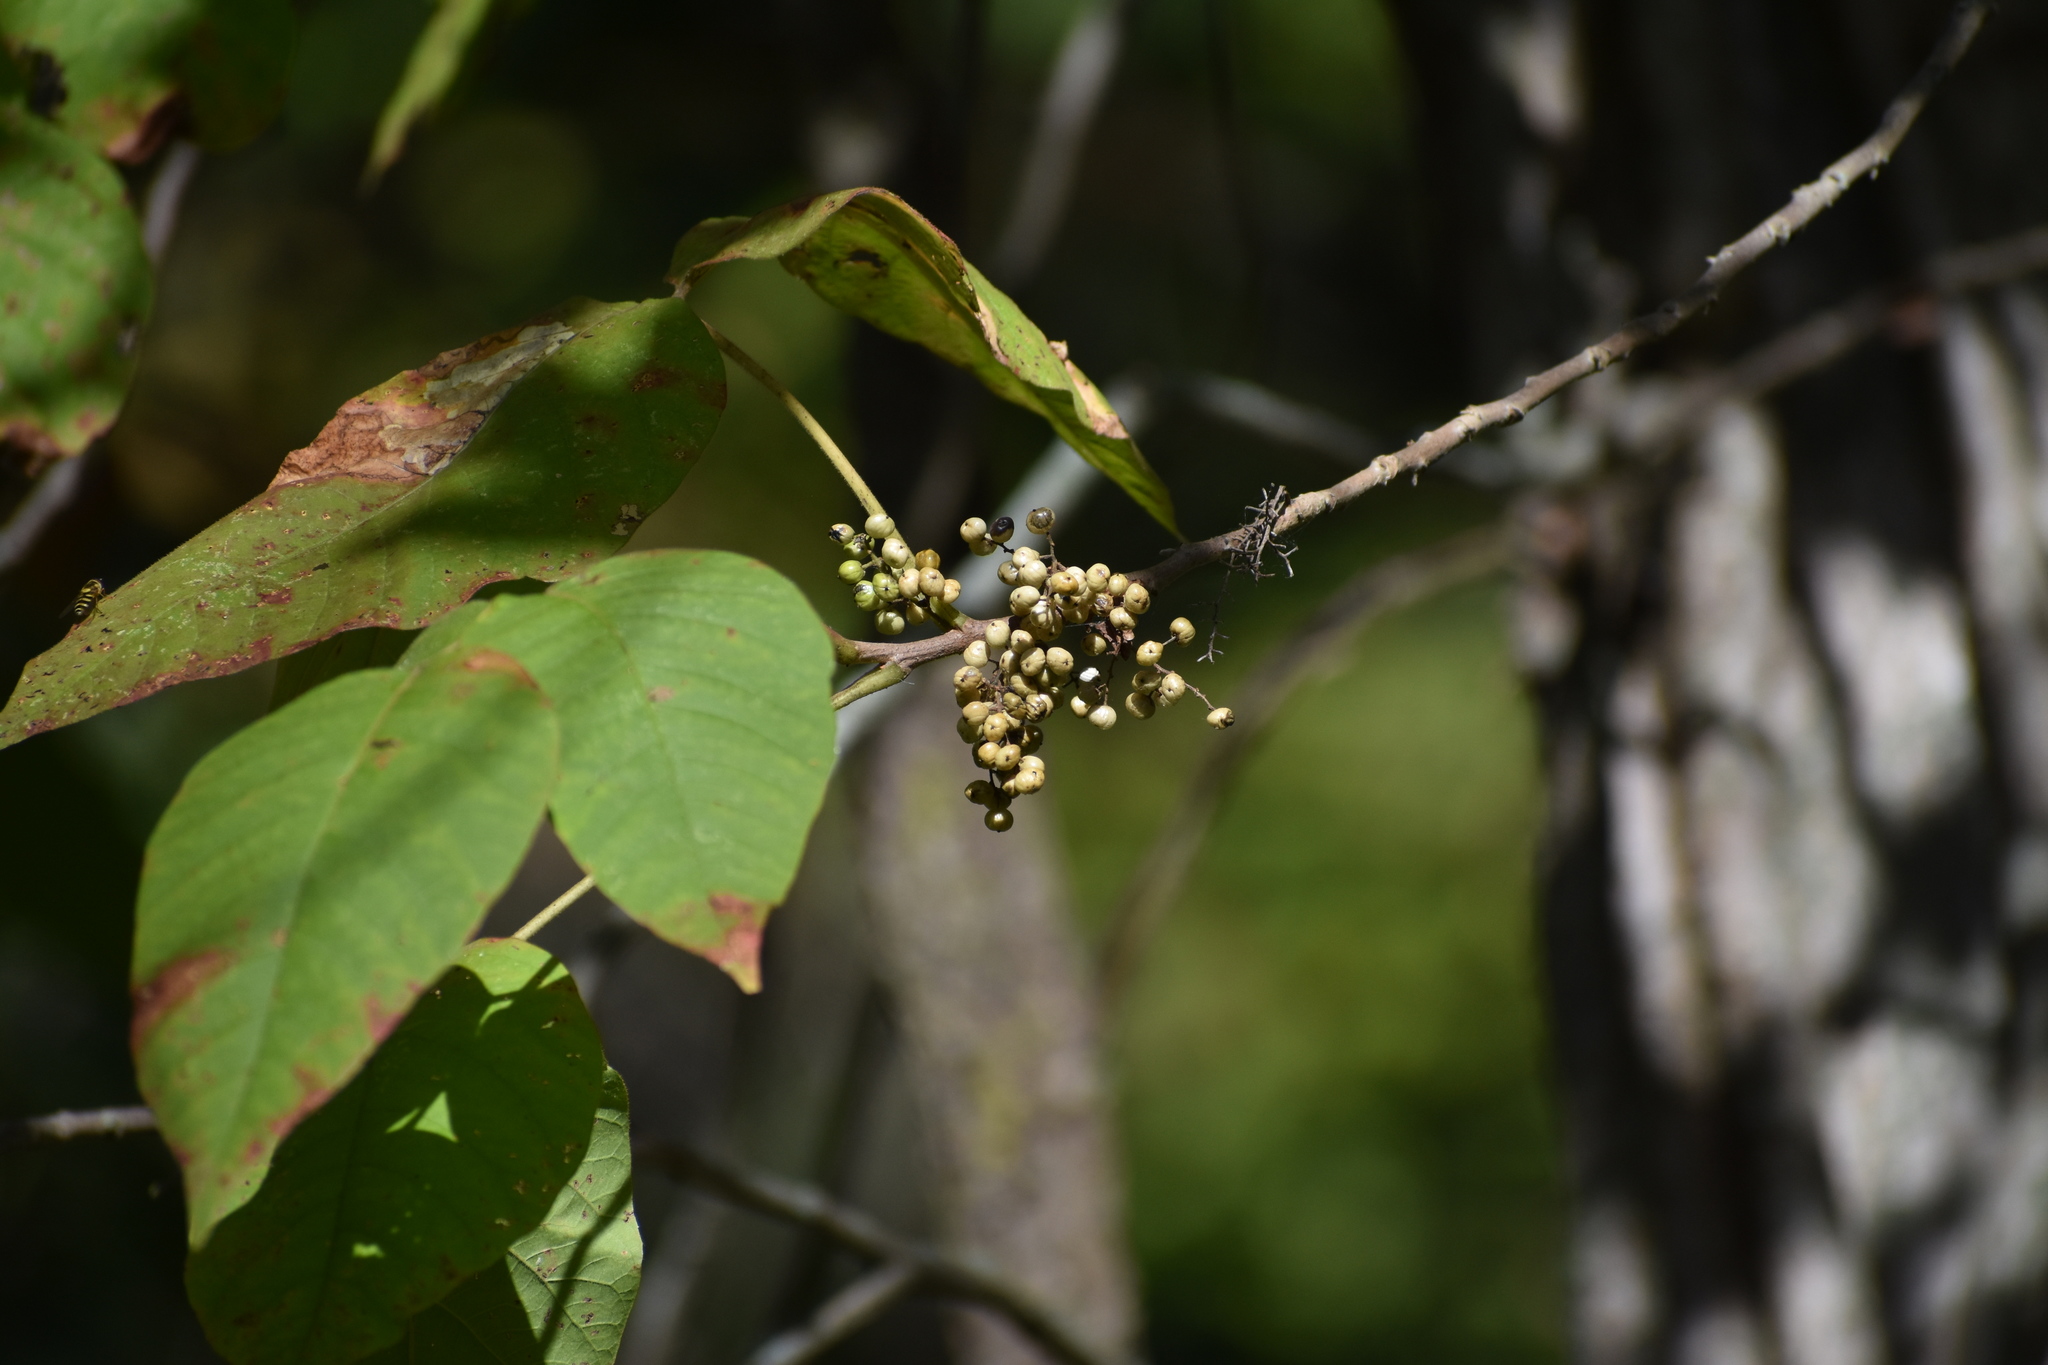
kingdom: Plantae
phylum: Tracheophyta
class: Magnoliopsida
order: Sapindales
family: Anacardiaceae
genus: Toxicodendron
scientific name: Toxicodendron radicans
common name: Poison ivy
